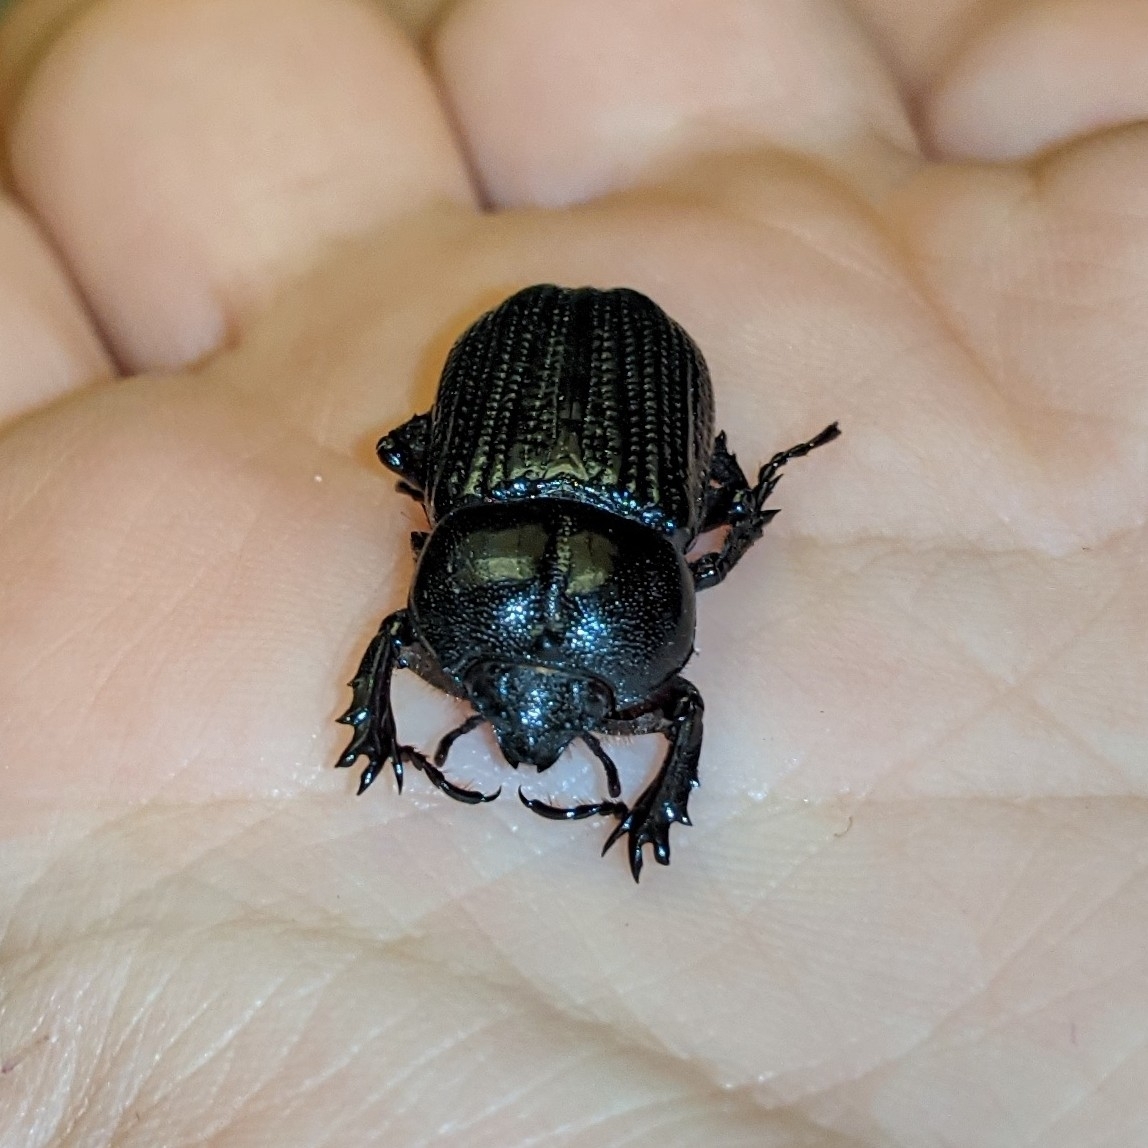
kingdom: Animalia
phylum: Arthropoda
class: Insecta
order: Coleoptera
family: Scarabaeidae
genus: Phileurus
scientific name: Phileurus valgus
